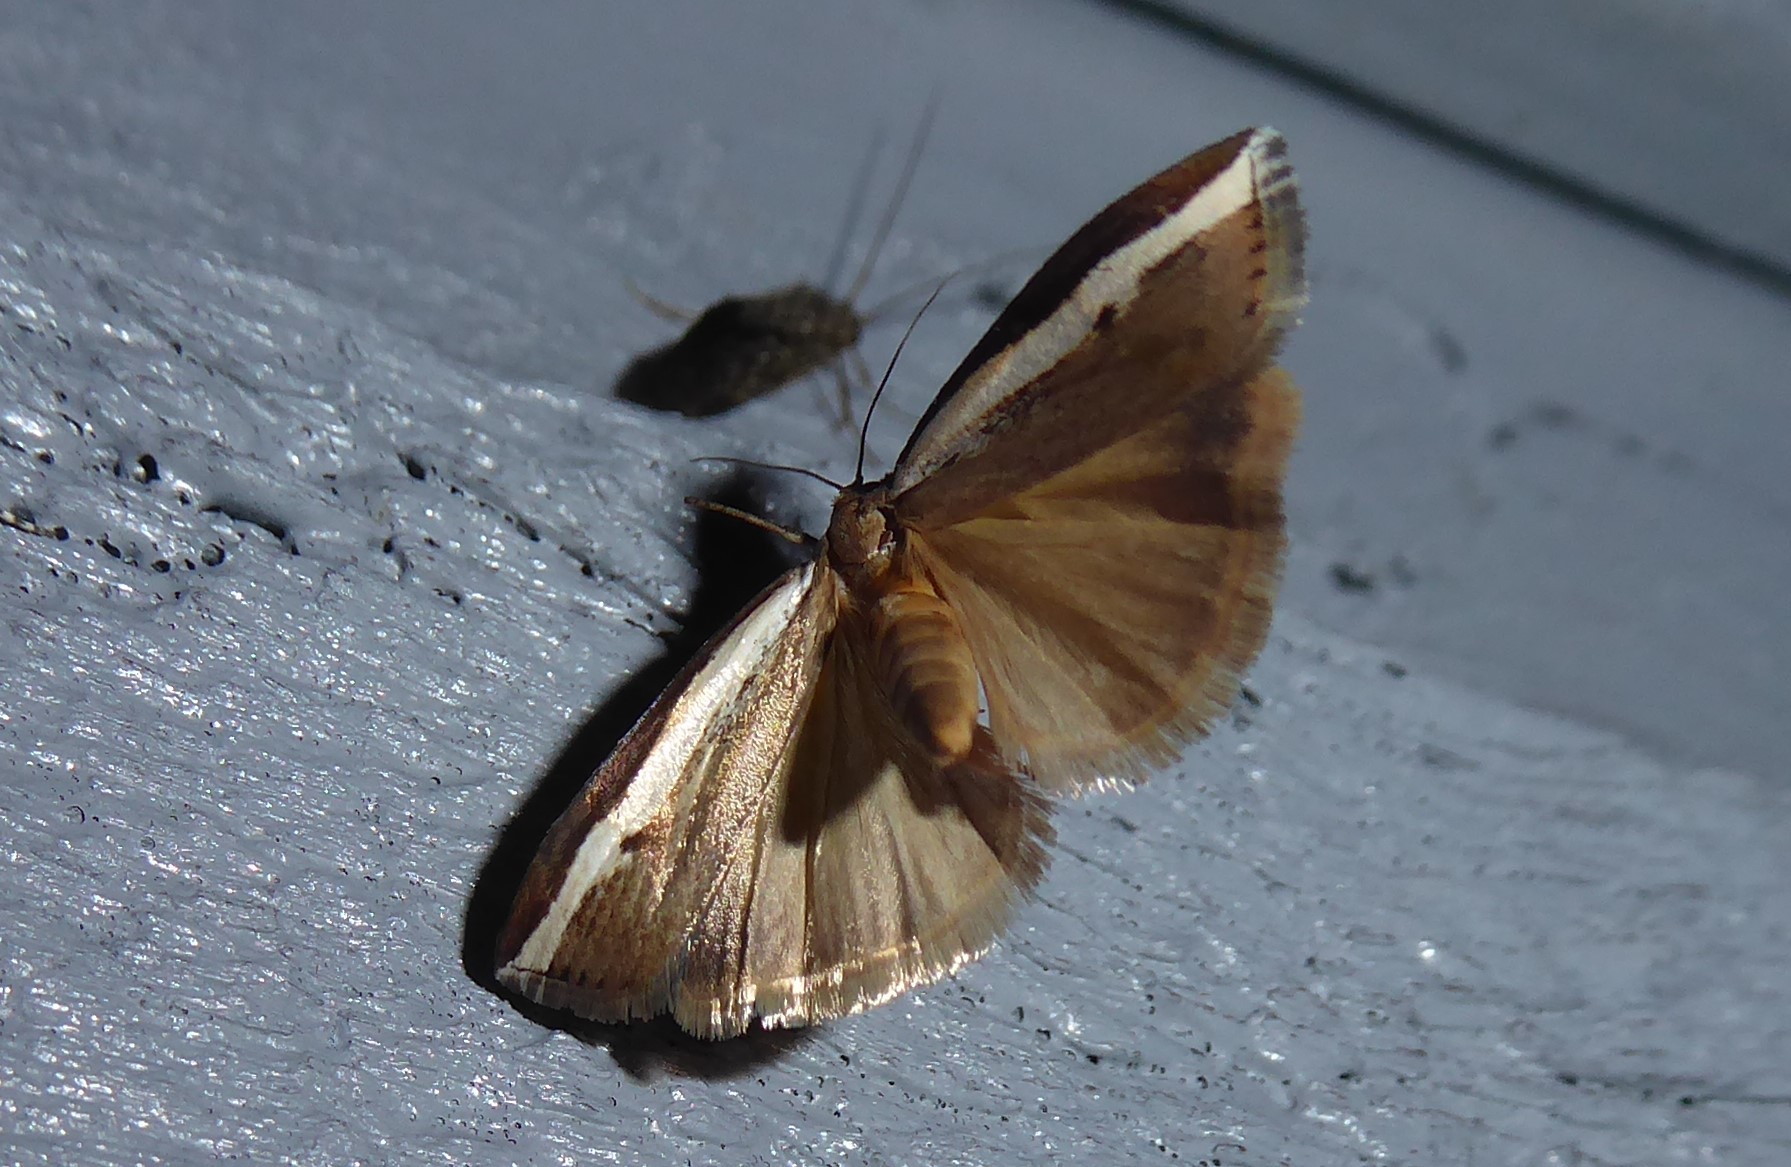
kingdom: Animalia
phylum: Arthropoda
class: Insecta
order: Lepidoptera
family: Crambidae
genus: Orocrambus
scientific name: Orocrambus flexuosellus
